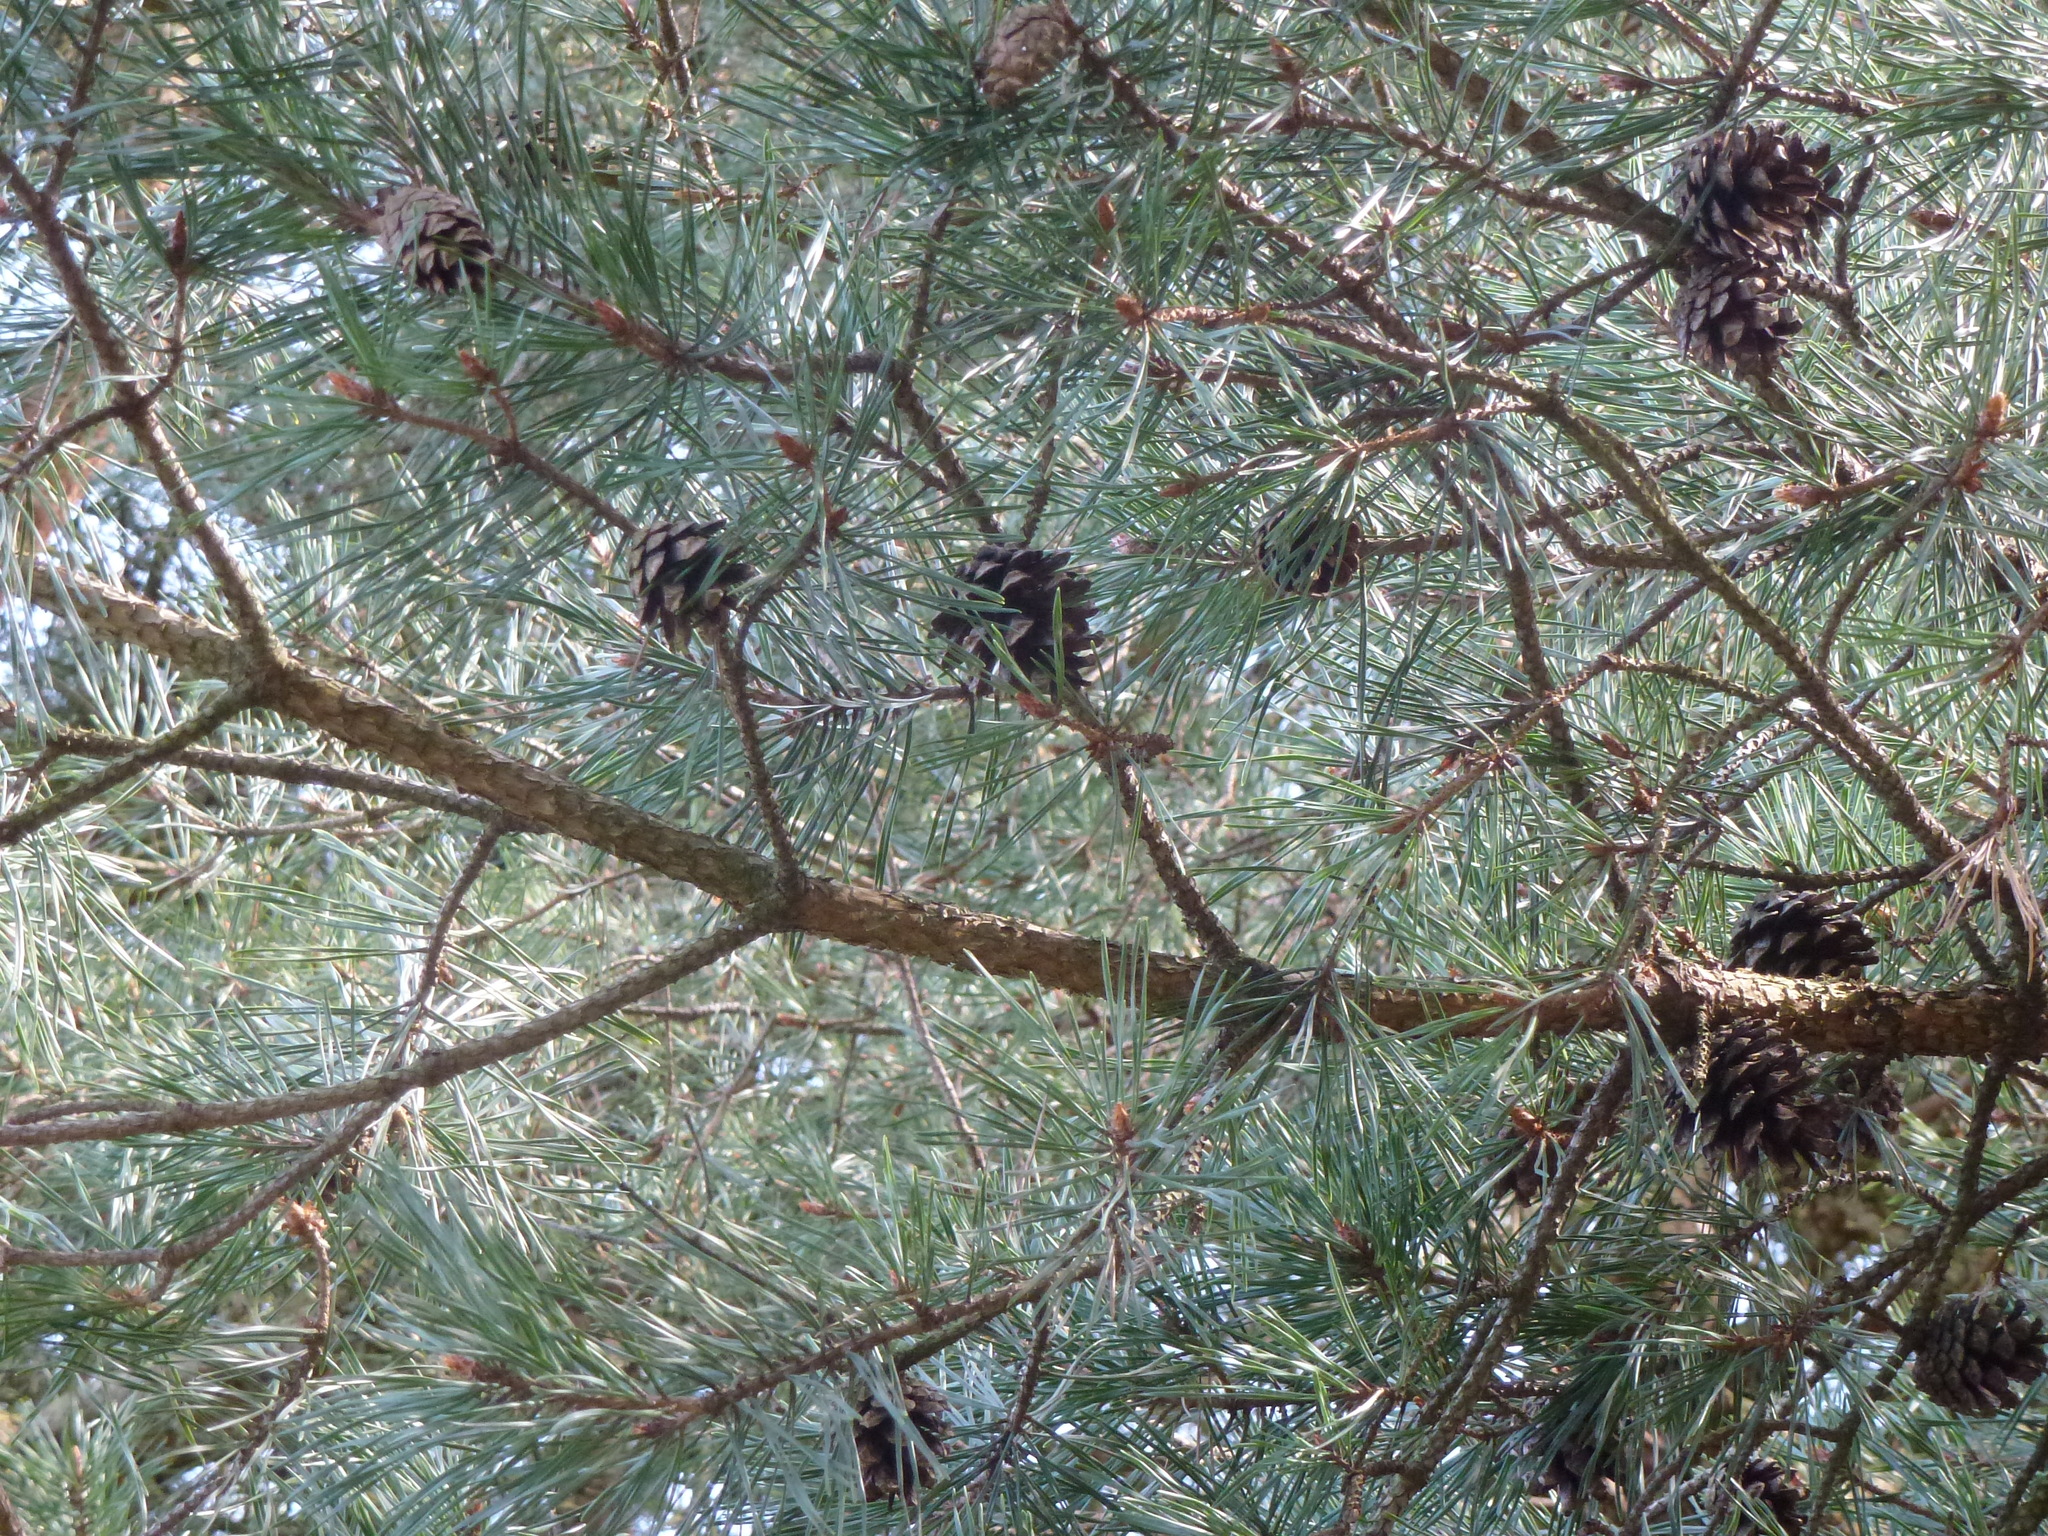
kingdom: Plantae
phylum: Tracheophyta
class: Pinopsida
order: Pinales
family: Pinaceae
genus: Pinus
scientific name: Pinus sylvestris
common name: Scots pine
